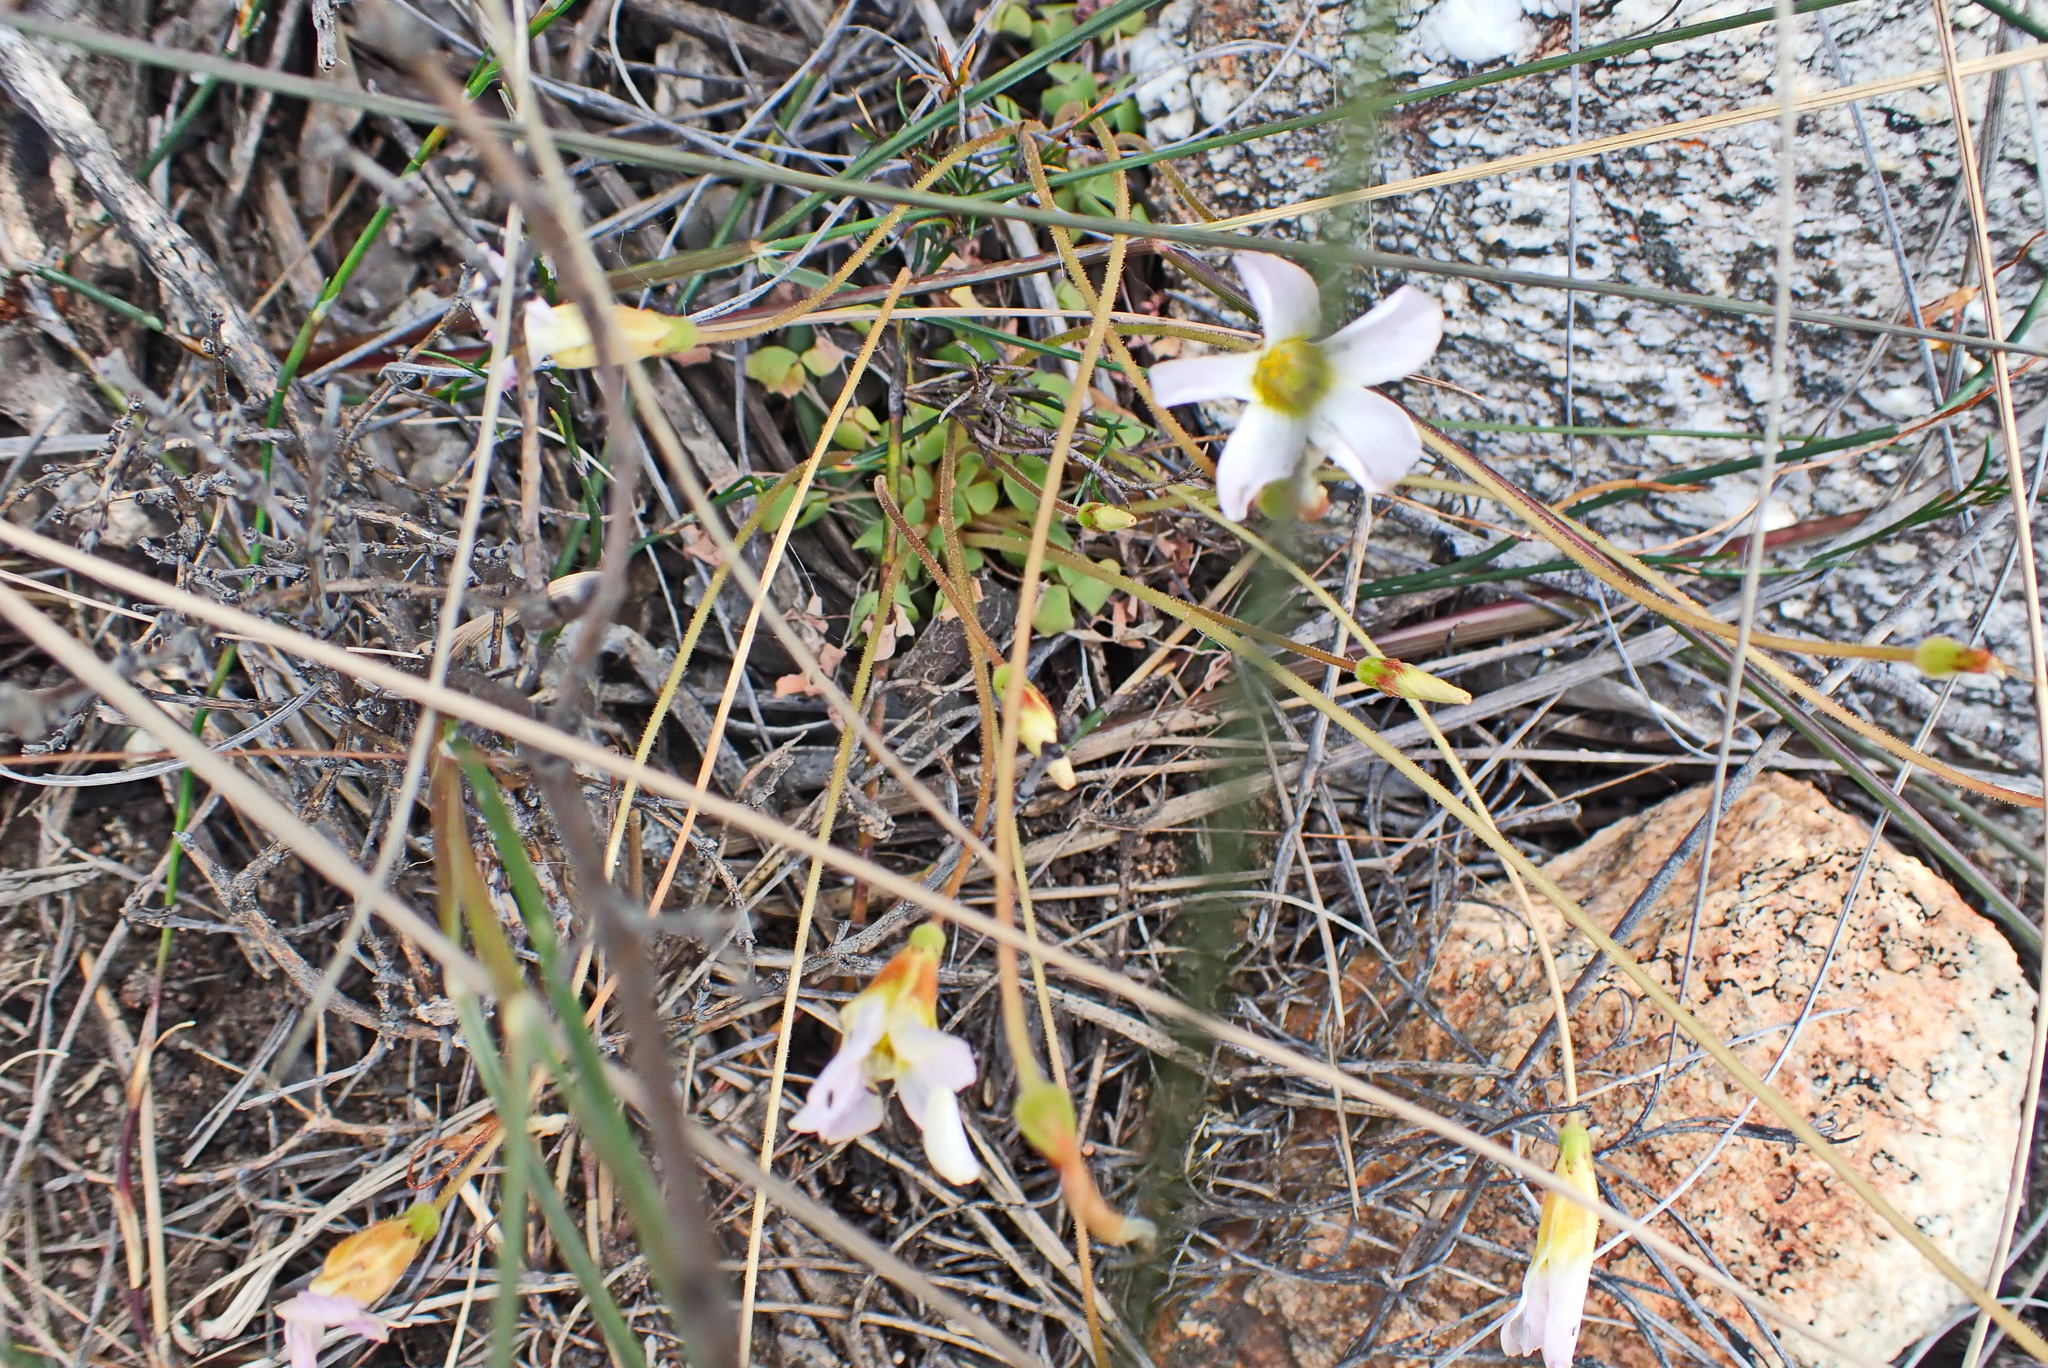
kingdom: Plantae
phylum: Tracheophyta
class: Magnoliopsida
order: Oxalidales
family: Oxalidaceae
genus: Oxalis
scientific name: Oxalis fergusoniae
